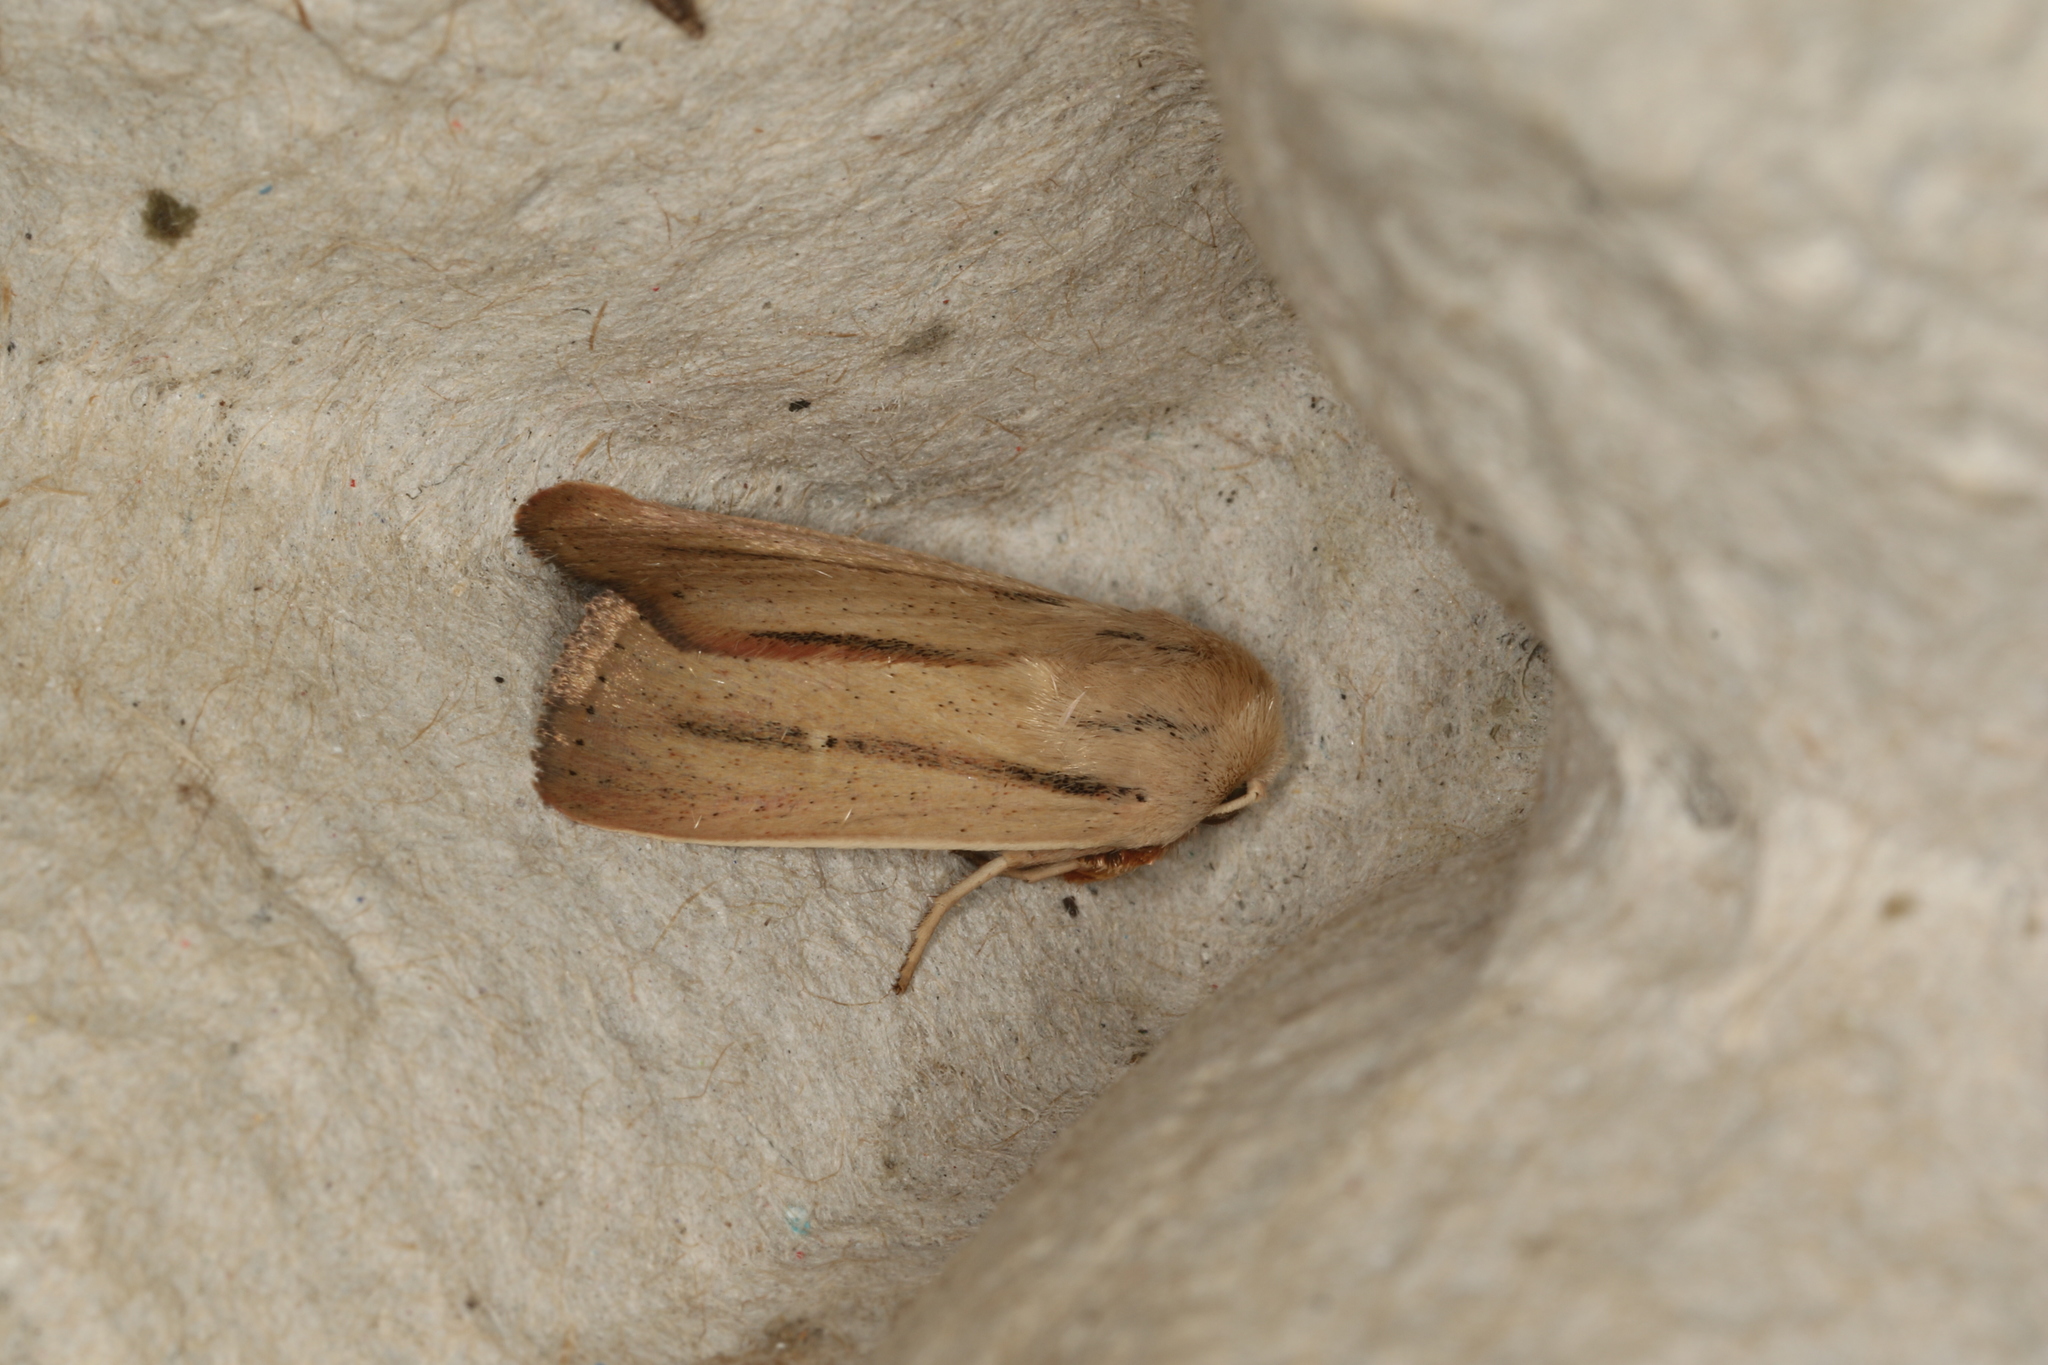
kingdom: Animalia
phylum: Arthropoda
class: Insecta
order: Lepidoptera
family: Noctuidae
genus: Leucania
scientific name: Leucania diatrecta
